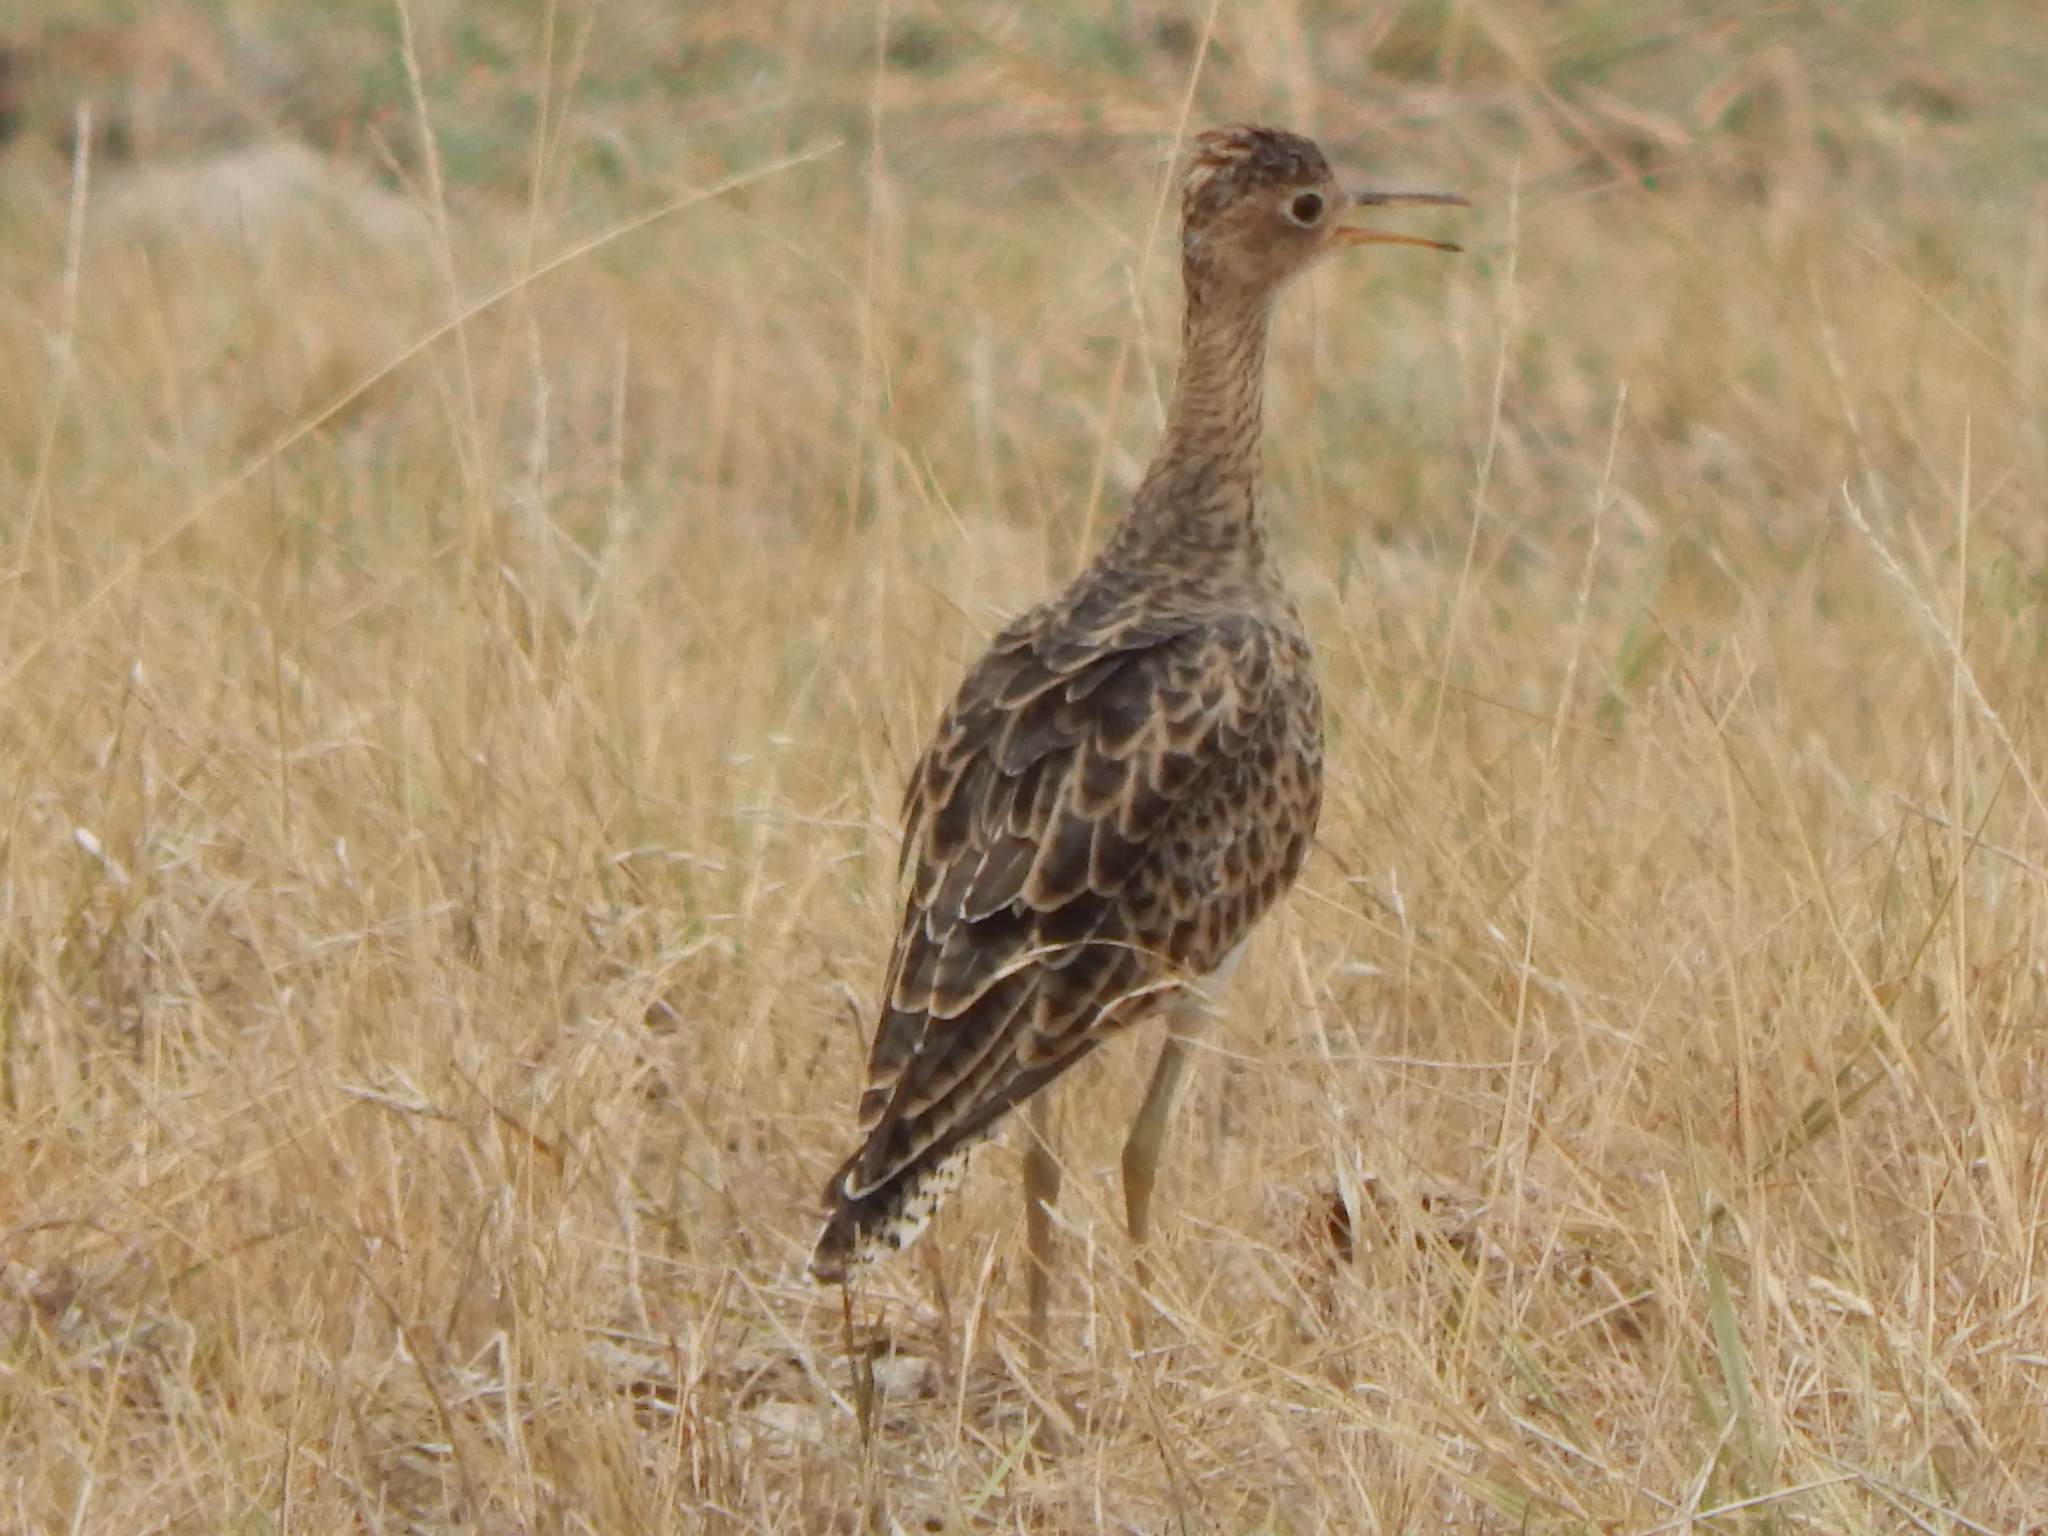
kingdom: Animalia
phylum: Chordata
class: Aves
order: Charadriiformes
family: Scolopacidae
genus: Bartramia
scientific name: Bartramia longicauda
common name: Upland sandpiper
